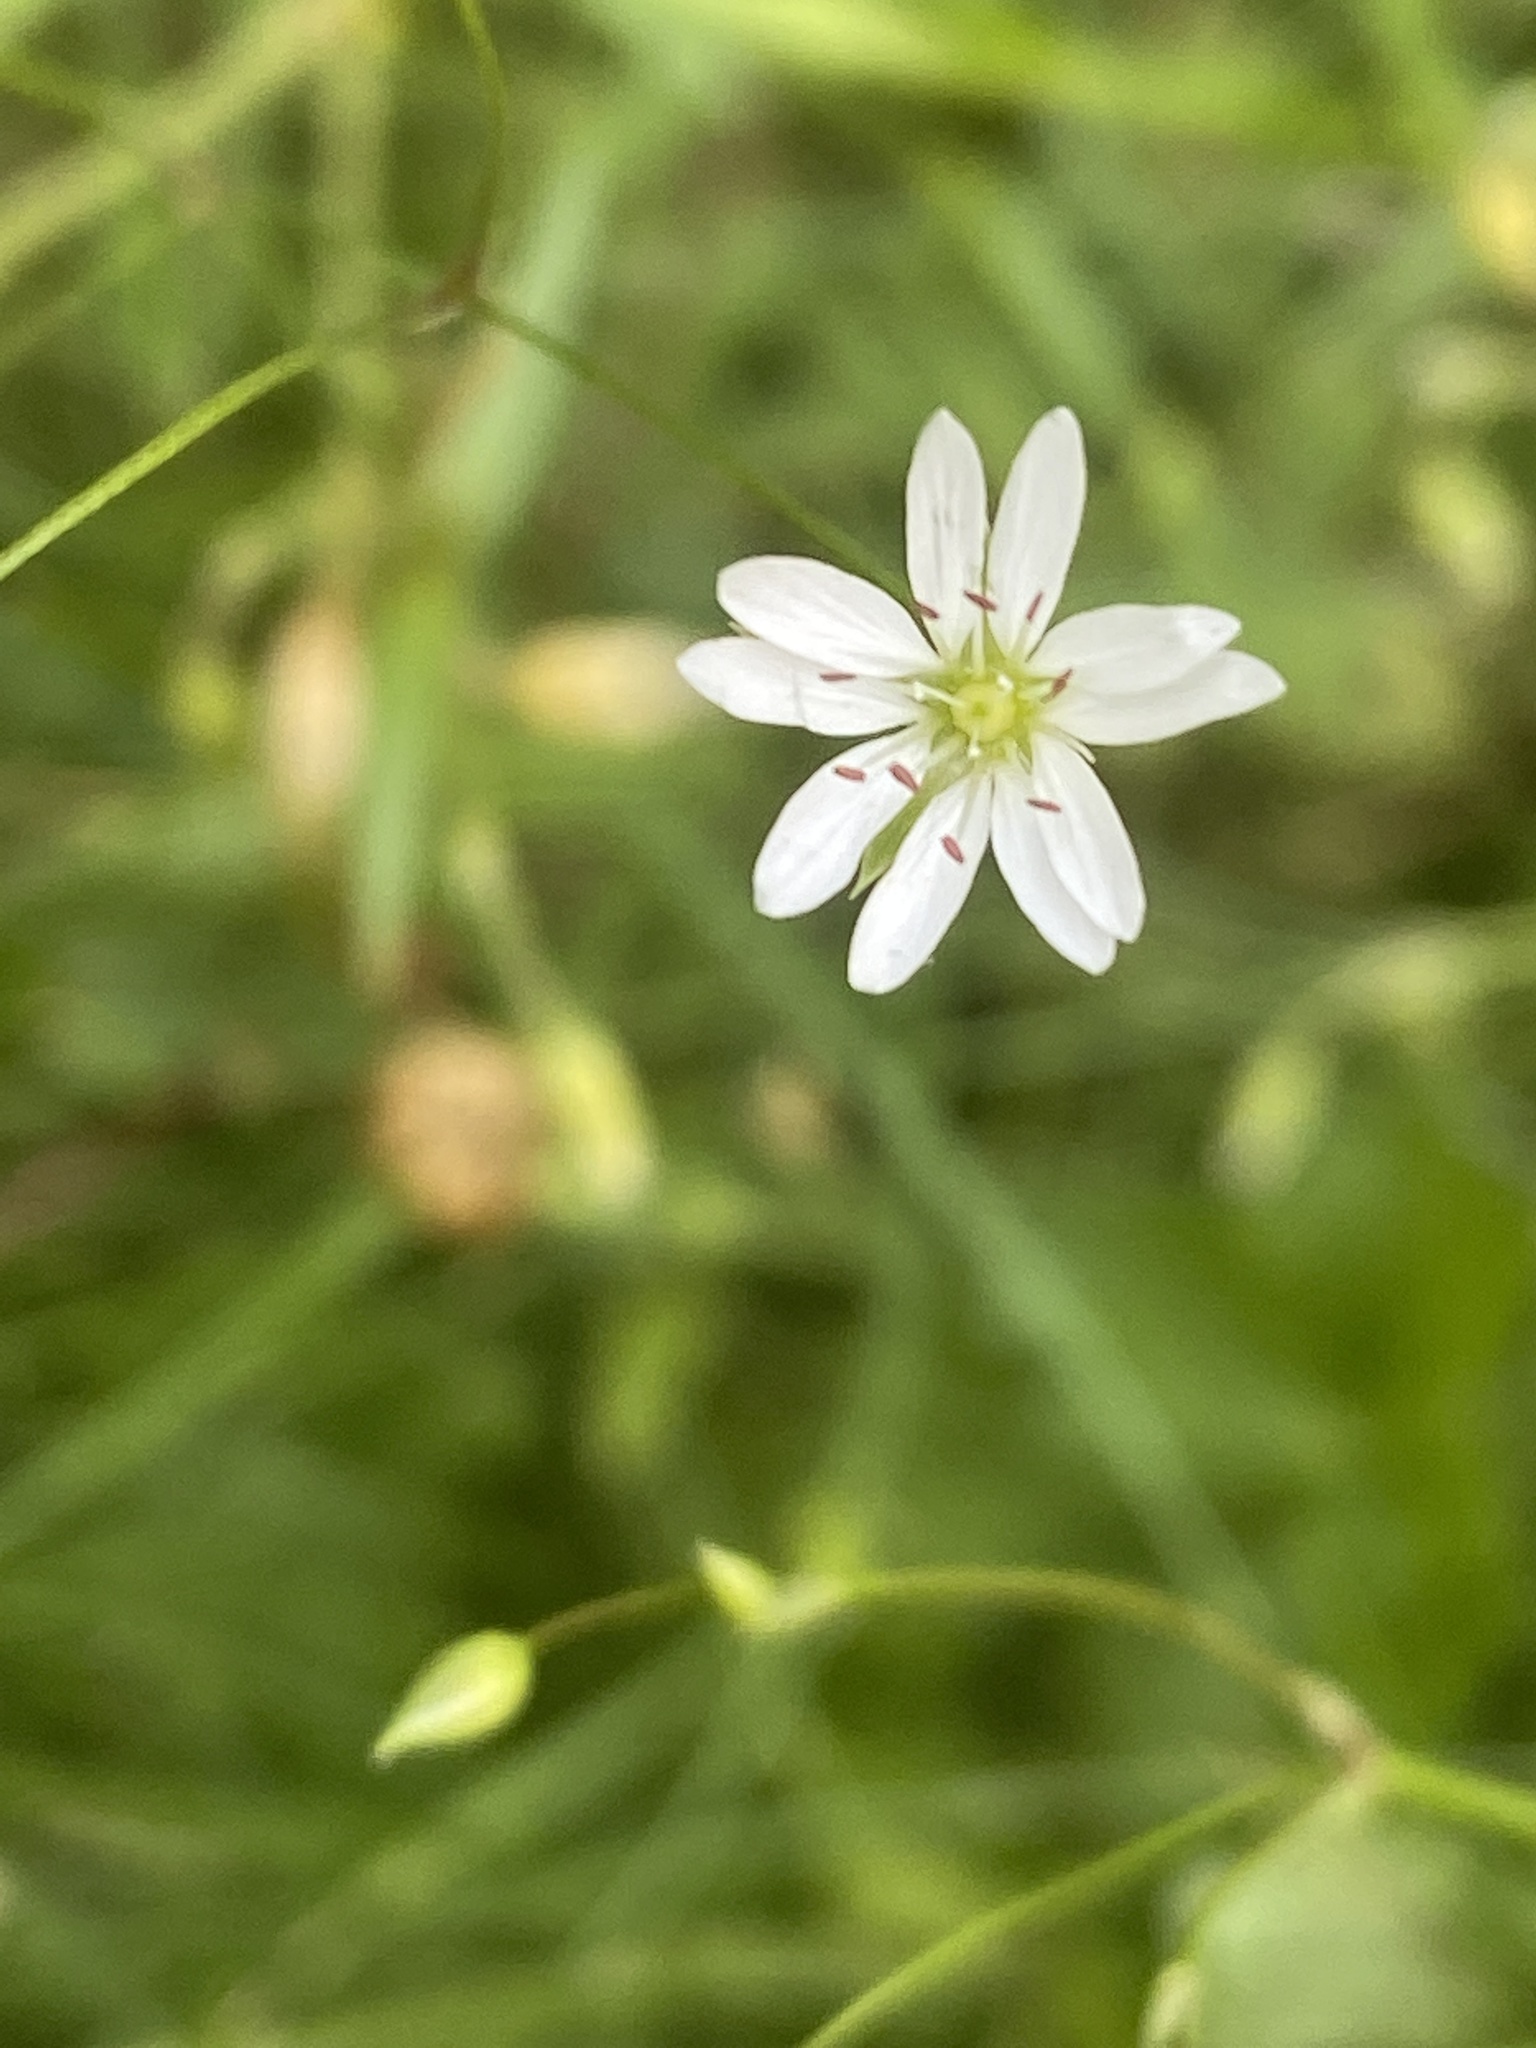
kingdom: Plantae
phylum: Tracheophyta
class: Magnoliopsida
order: Caryophyllales
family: Caryophyllaceae
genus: Stellaria
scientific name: Stellaria graminea
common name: Grass-like starwort
